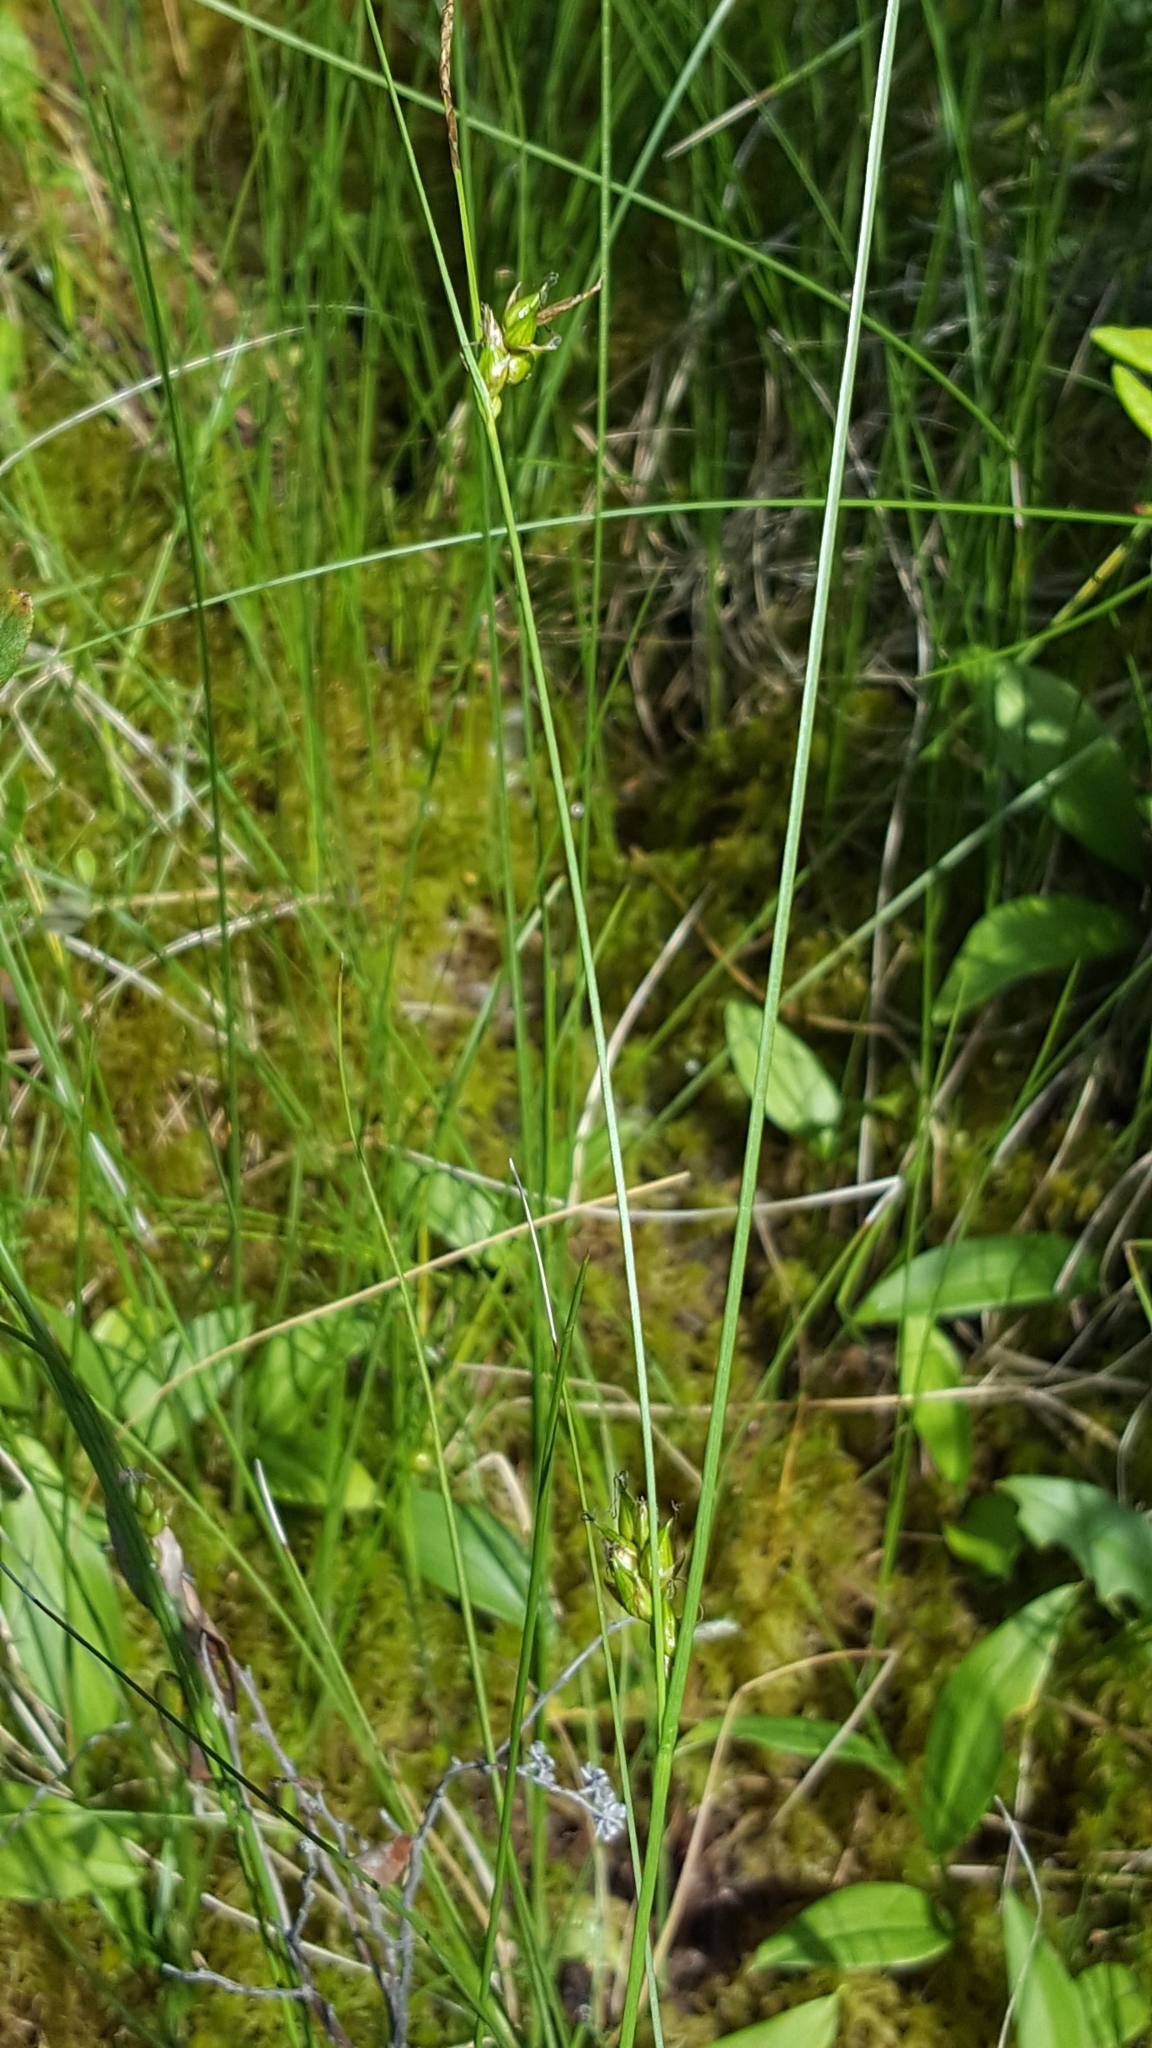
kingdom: Plantae
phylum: Tracheophyta
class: Liliopsida
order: Poales
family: Cyperaceae
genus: Carex
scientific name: Carex oligosperma
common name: Few-seed sedge
